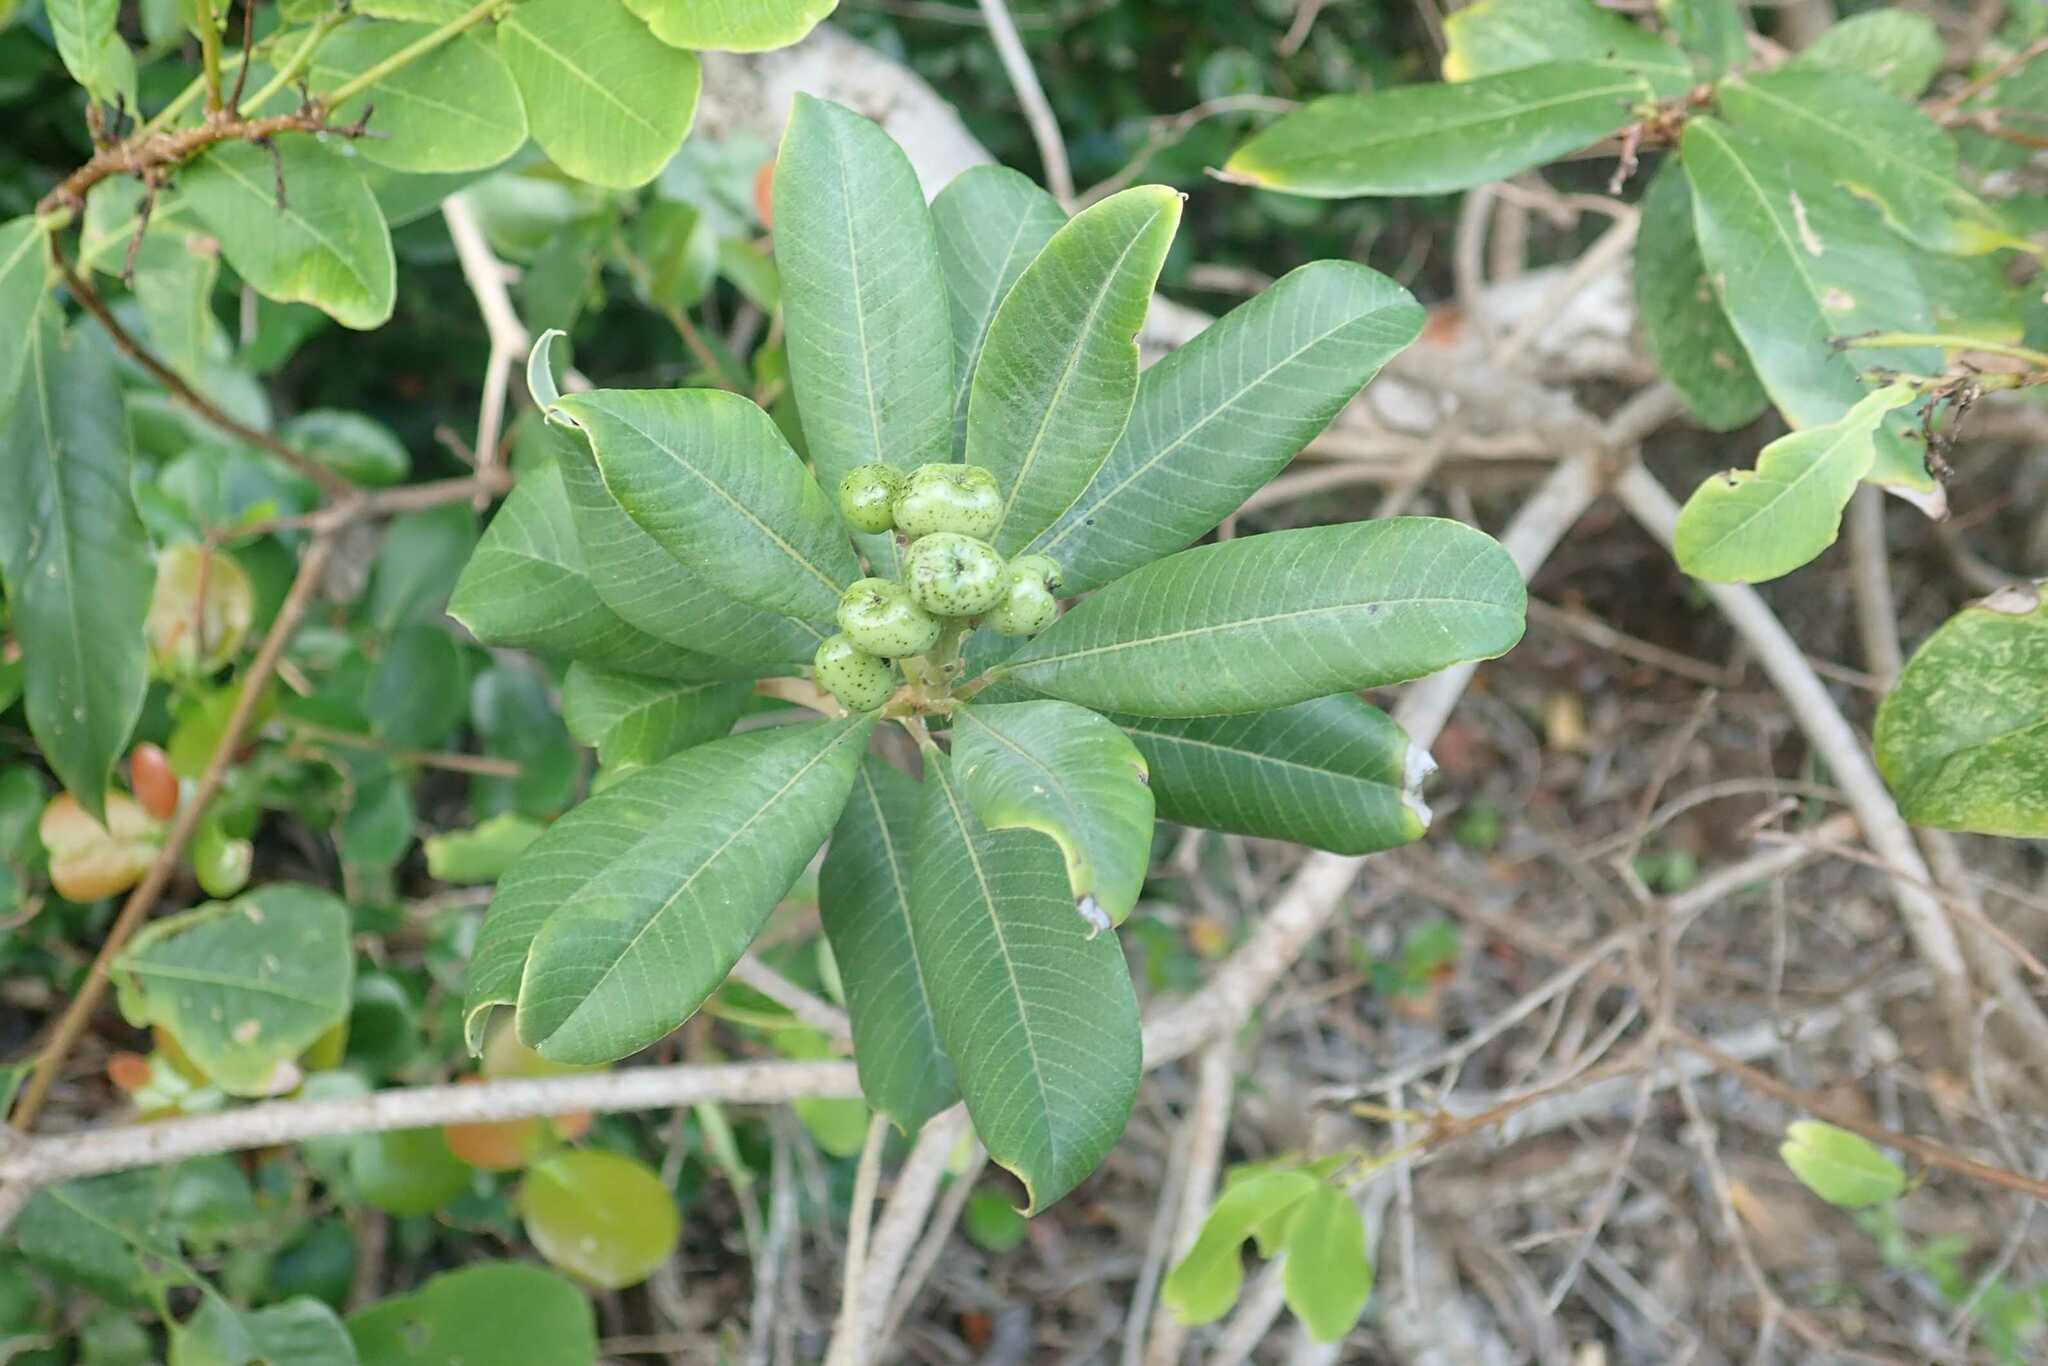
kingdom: Plantae
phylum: Tracheophyta
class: Magnoliopsida
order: Sapindales
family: Anacardiaceae
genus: Ozoroa
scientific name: Ozoroa obovata
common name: Broad-leaved resin tree
